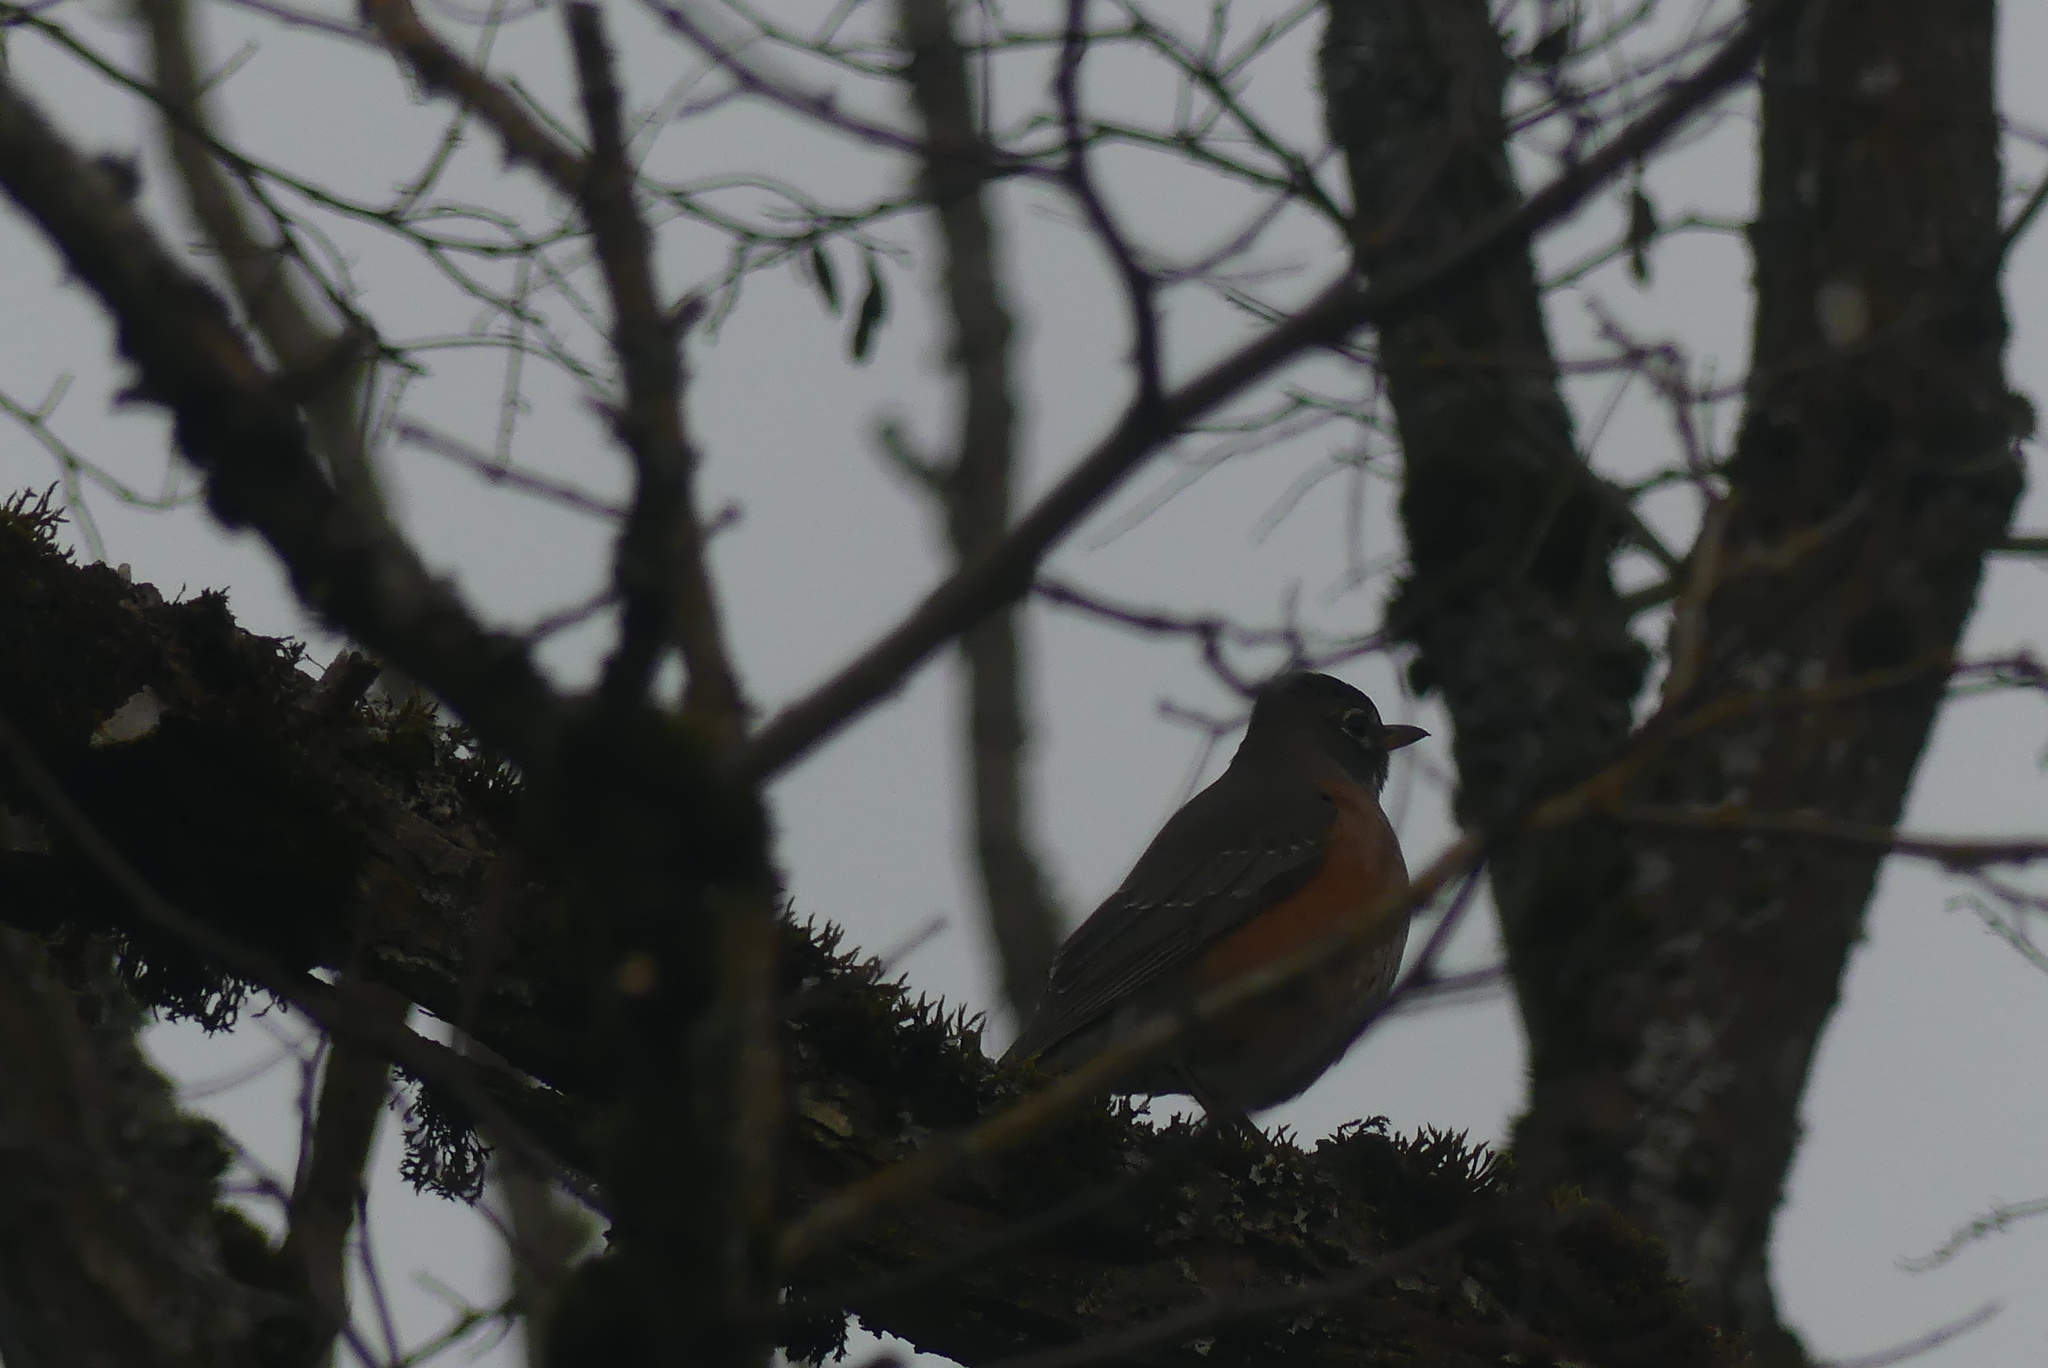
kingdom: Animalia
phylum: Chordata
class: Aves
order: Passeriformes
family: Turdidae
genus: Turdus
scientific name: Turdus migratorius
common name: American robin
